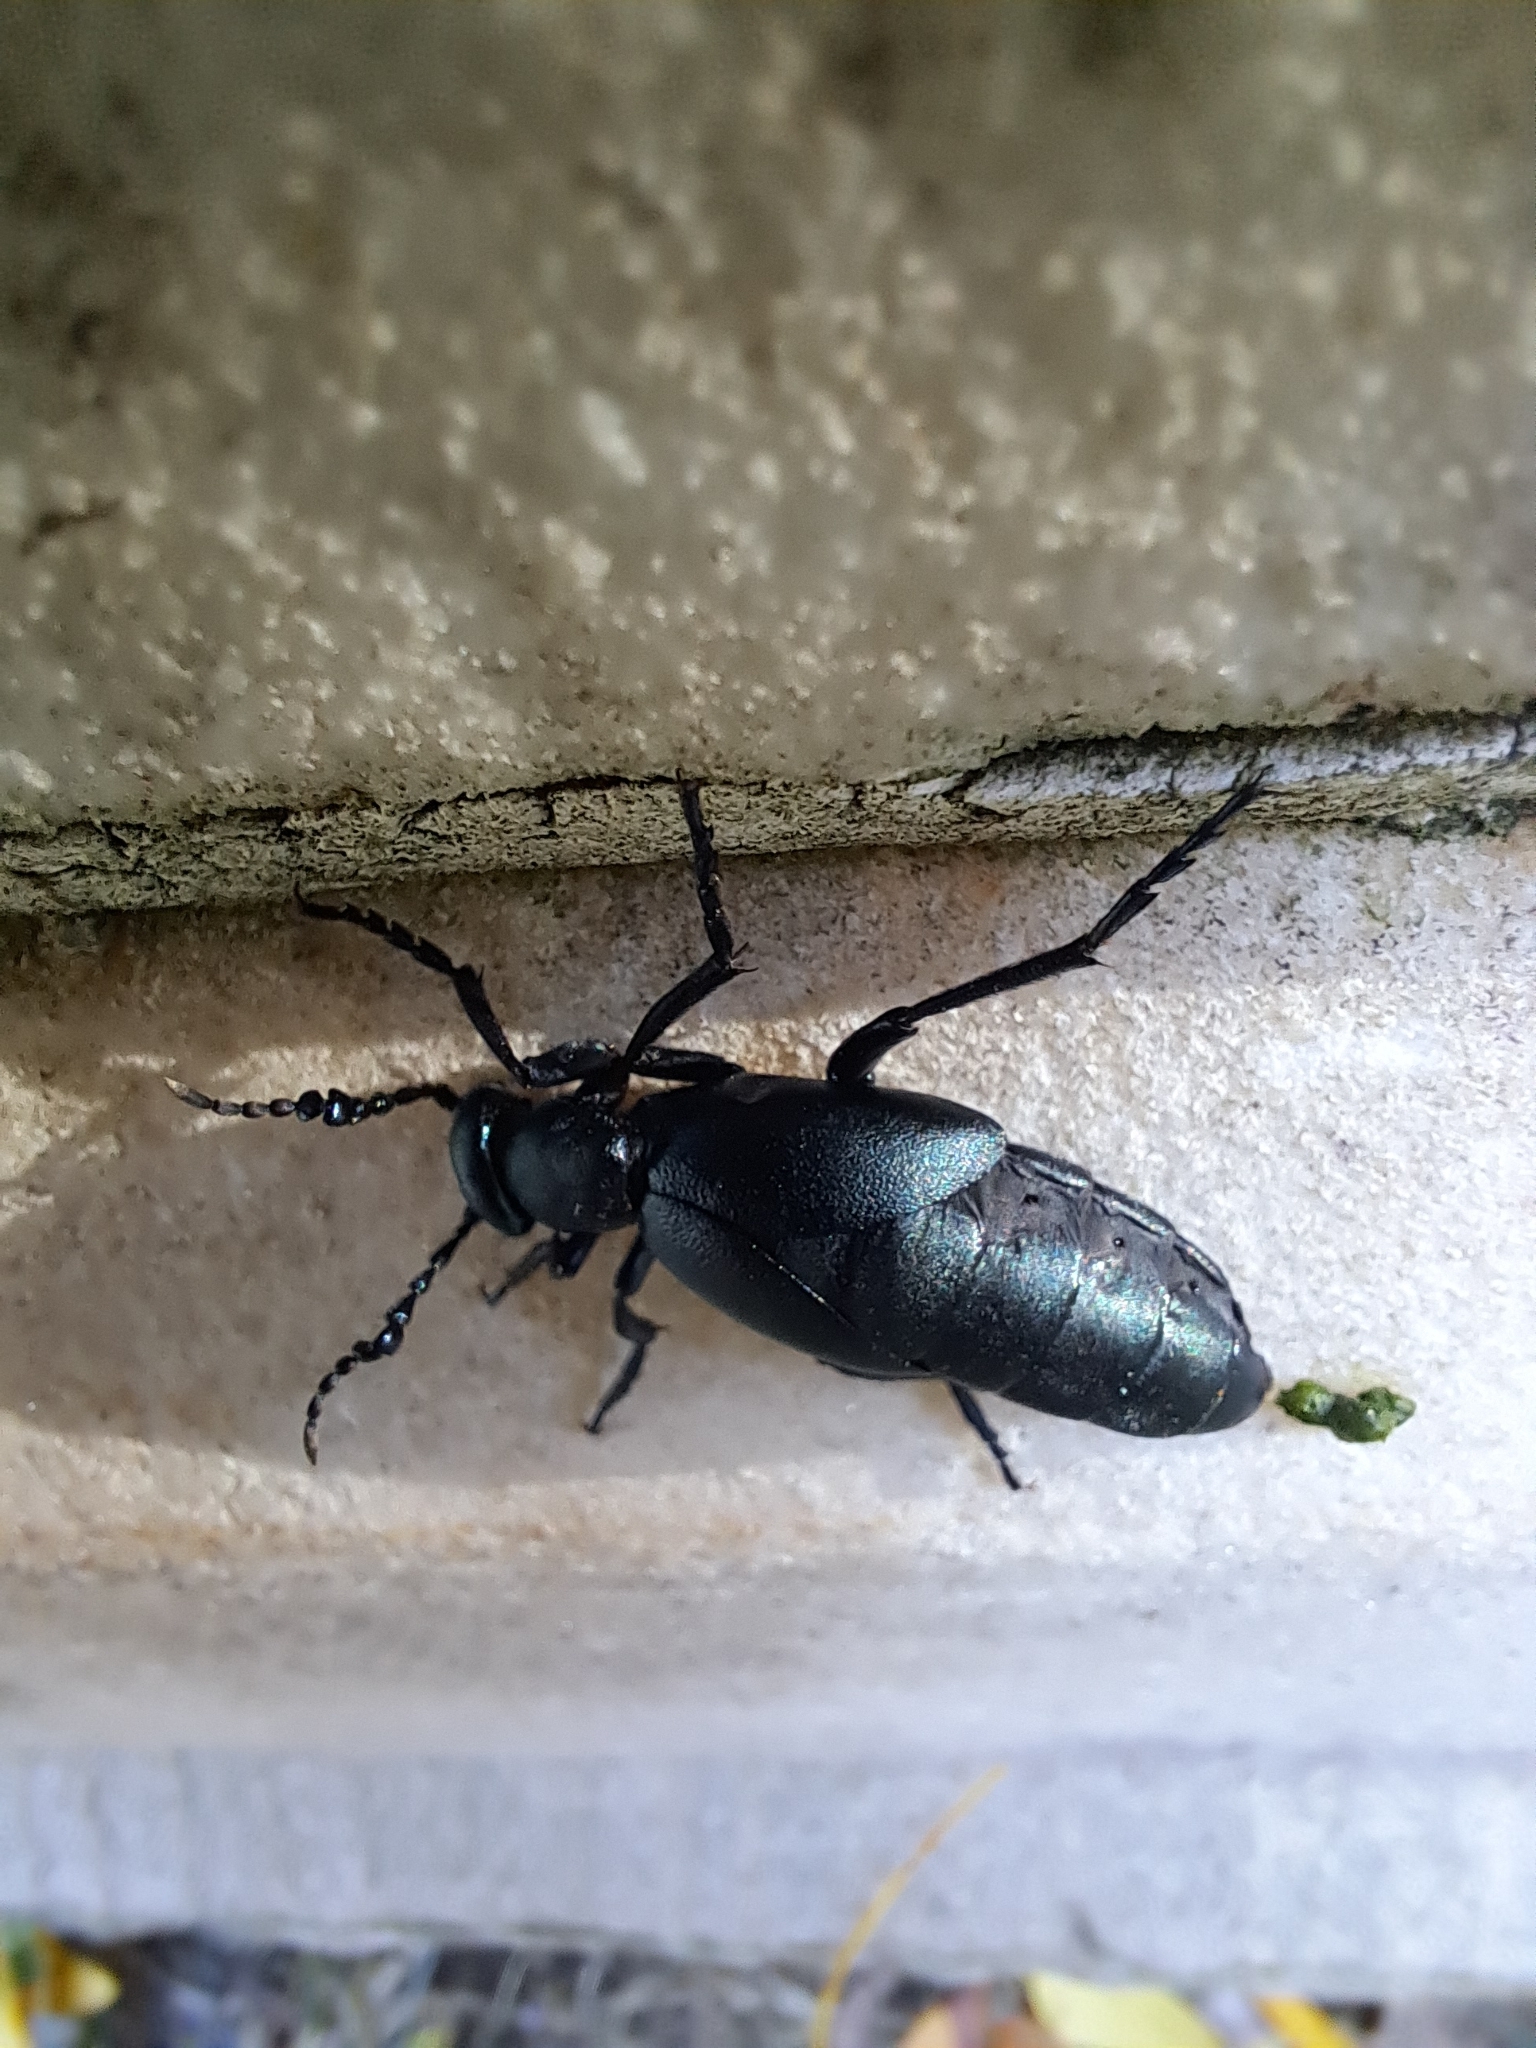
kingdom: Animalia
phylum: Arthropoda
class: Insecta
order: Coleoptera
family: Meloidae
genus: Meloe
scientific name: Meloe campanicollis
